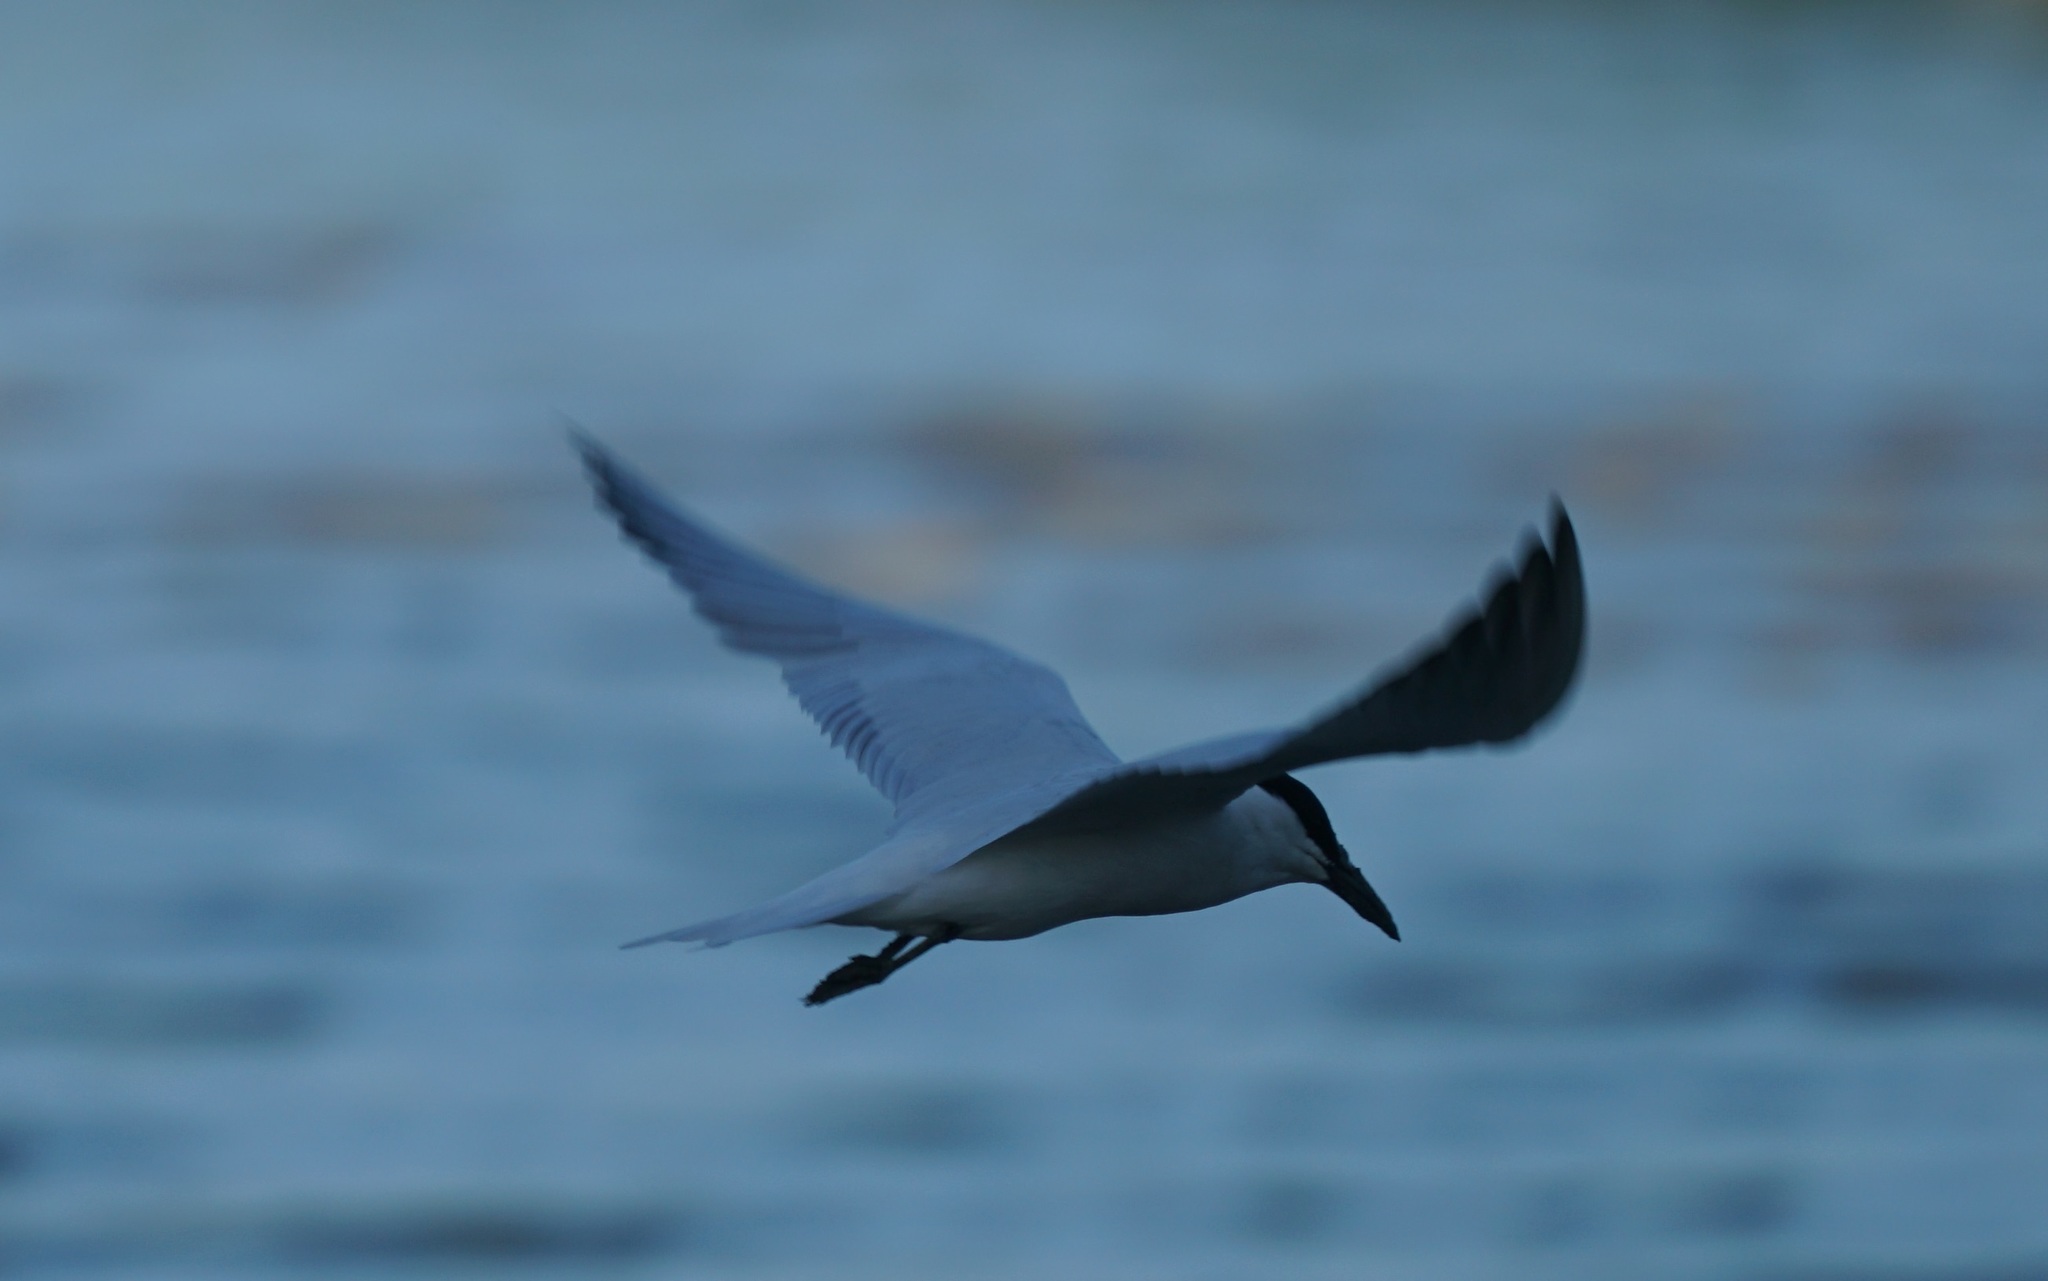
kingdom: Animalia
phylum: Chordata
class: Aves
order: Charadriiformes
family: Laridae
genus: Gelochelidon
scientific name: Gelochelidon macrotarsa
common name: Australian tern
